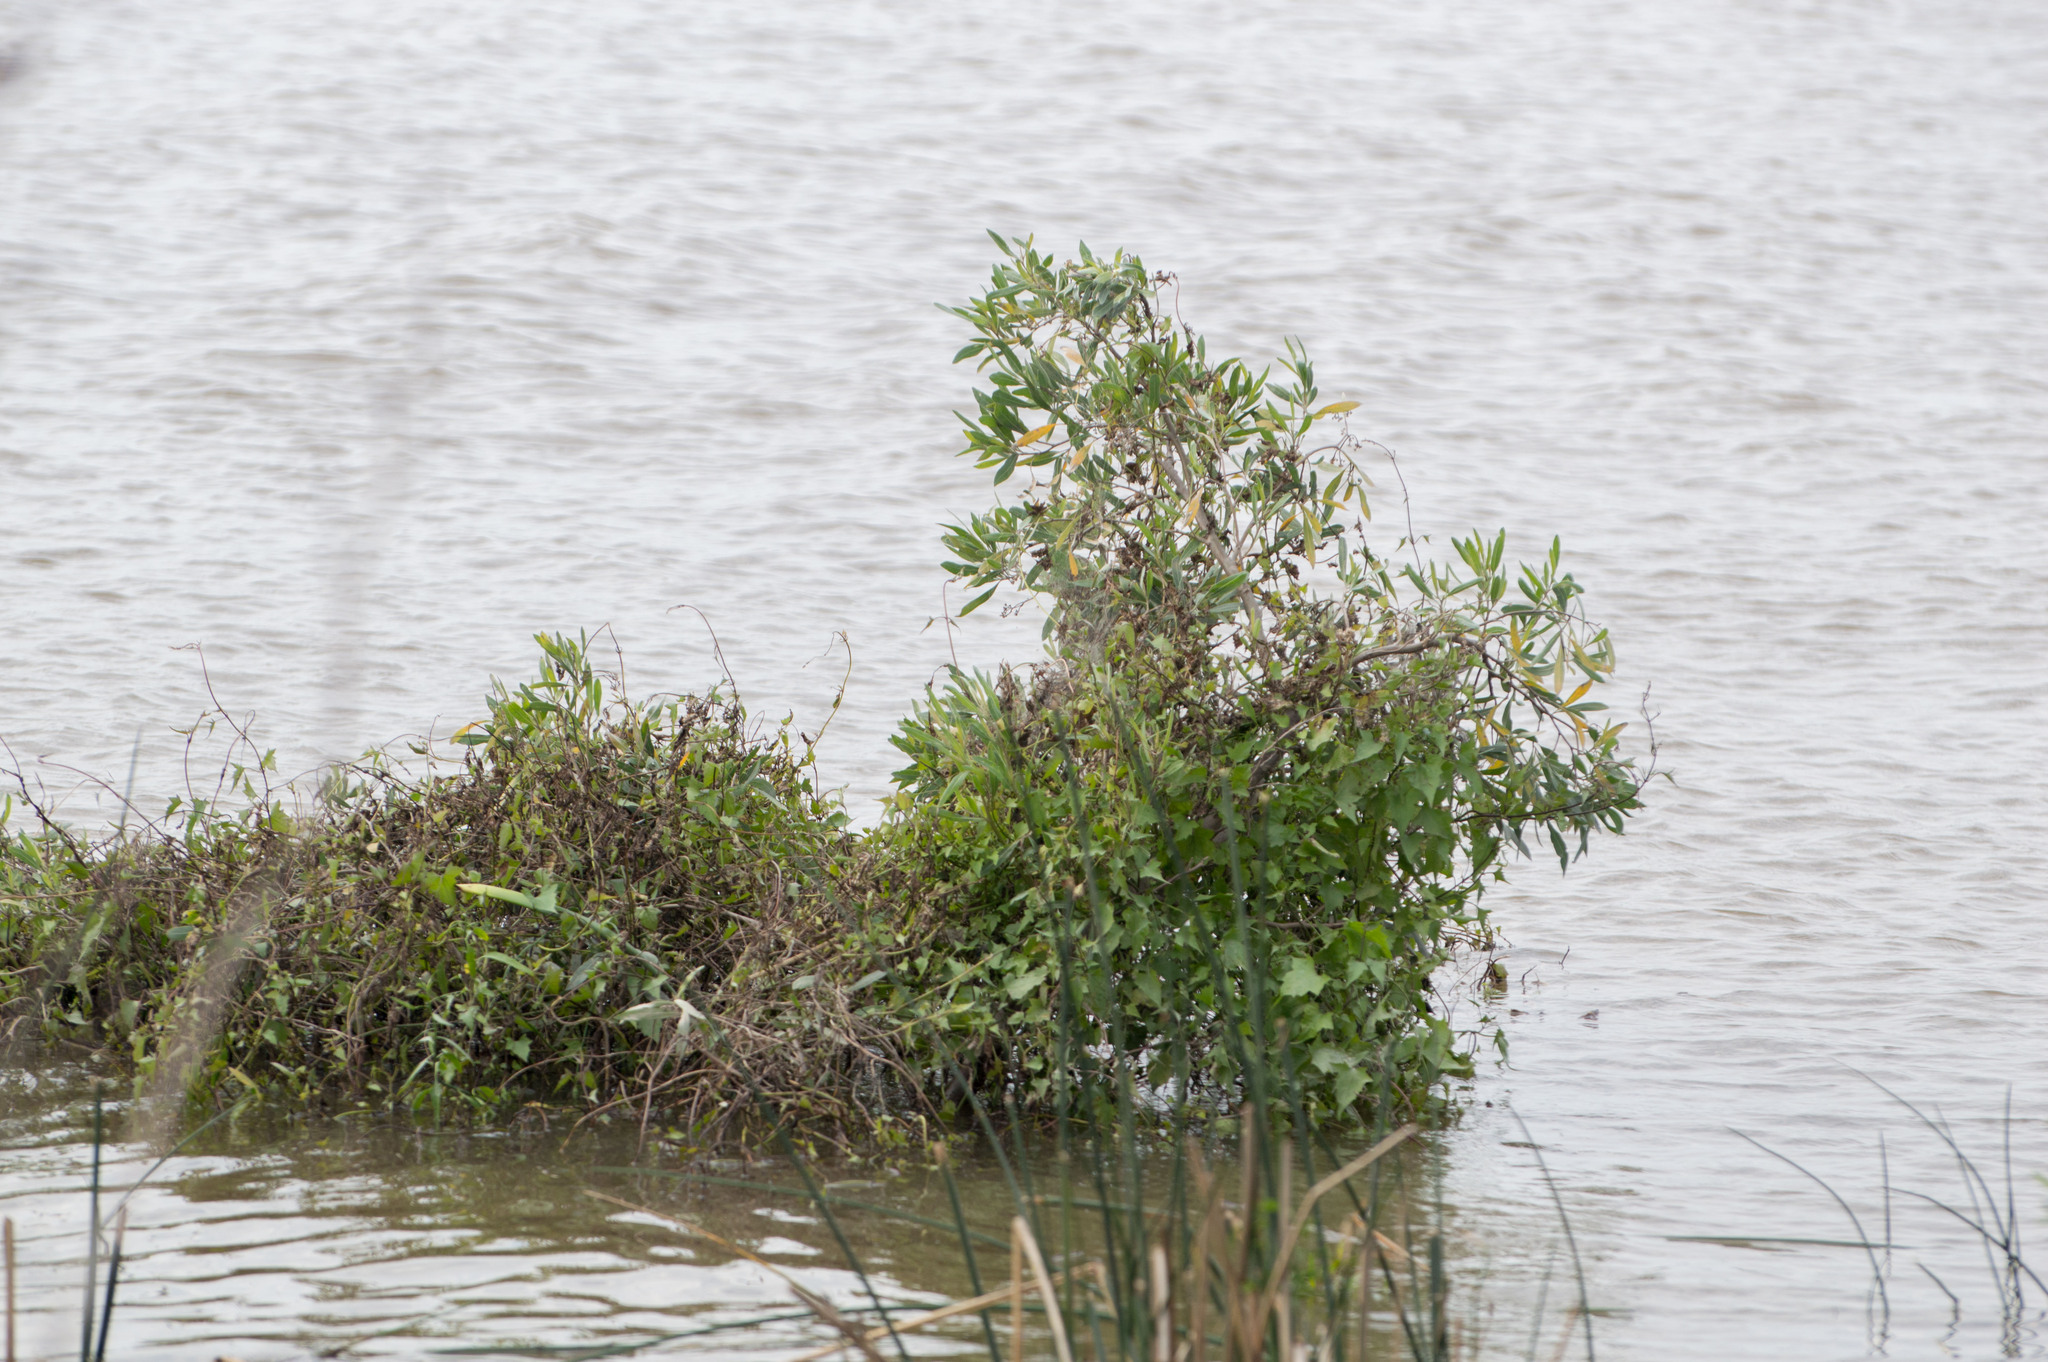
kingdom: Plantae
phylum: Tracheophyta
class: Magnoliopsida
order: Asterales
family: Asteraceae
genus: Tessaria
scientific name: Tessaria integrifolia
